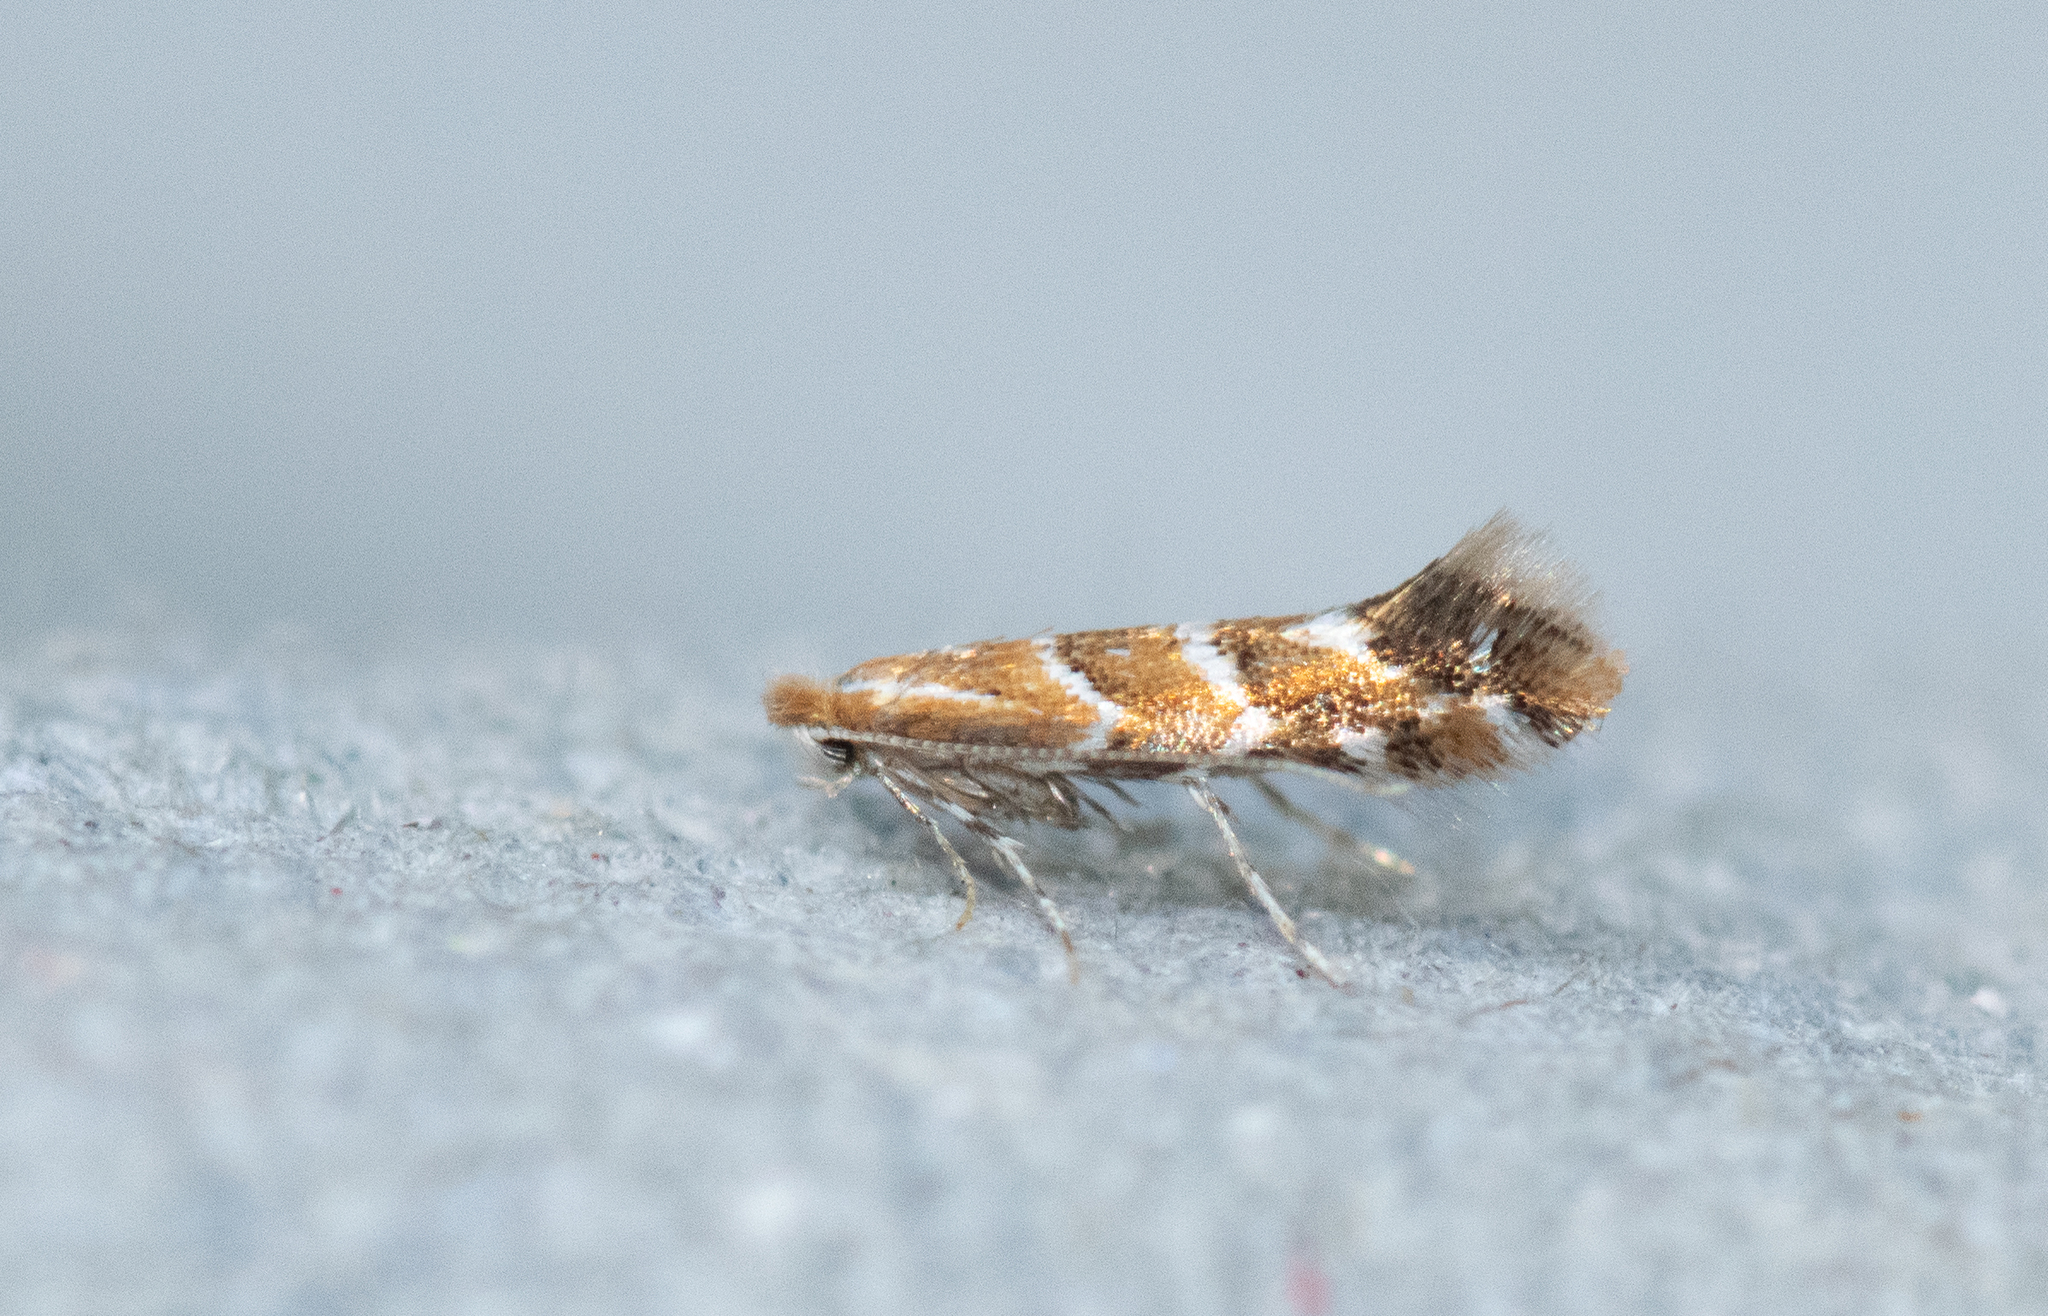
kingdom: Animalia
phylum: Arthropoda
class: Insecta
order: Lepidoptera
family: Gracillariidae
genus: Cameraria
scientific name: Cameraria ohridella
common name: Horse-chestnut leaf-miner
